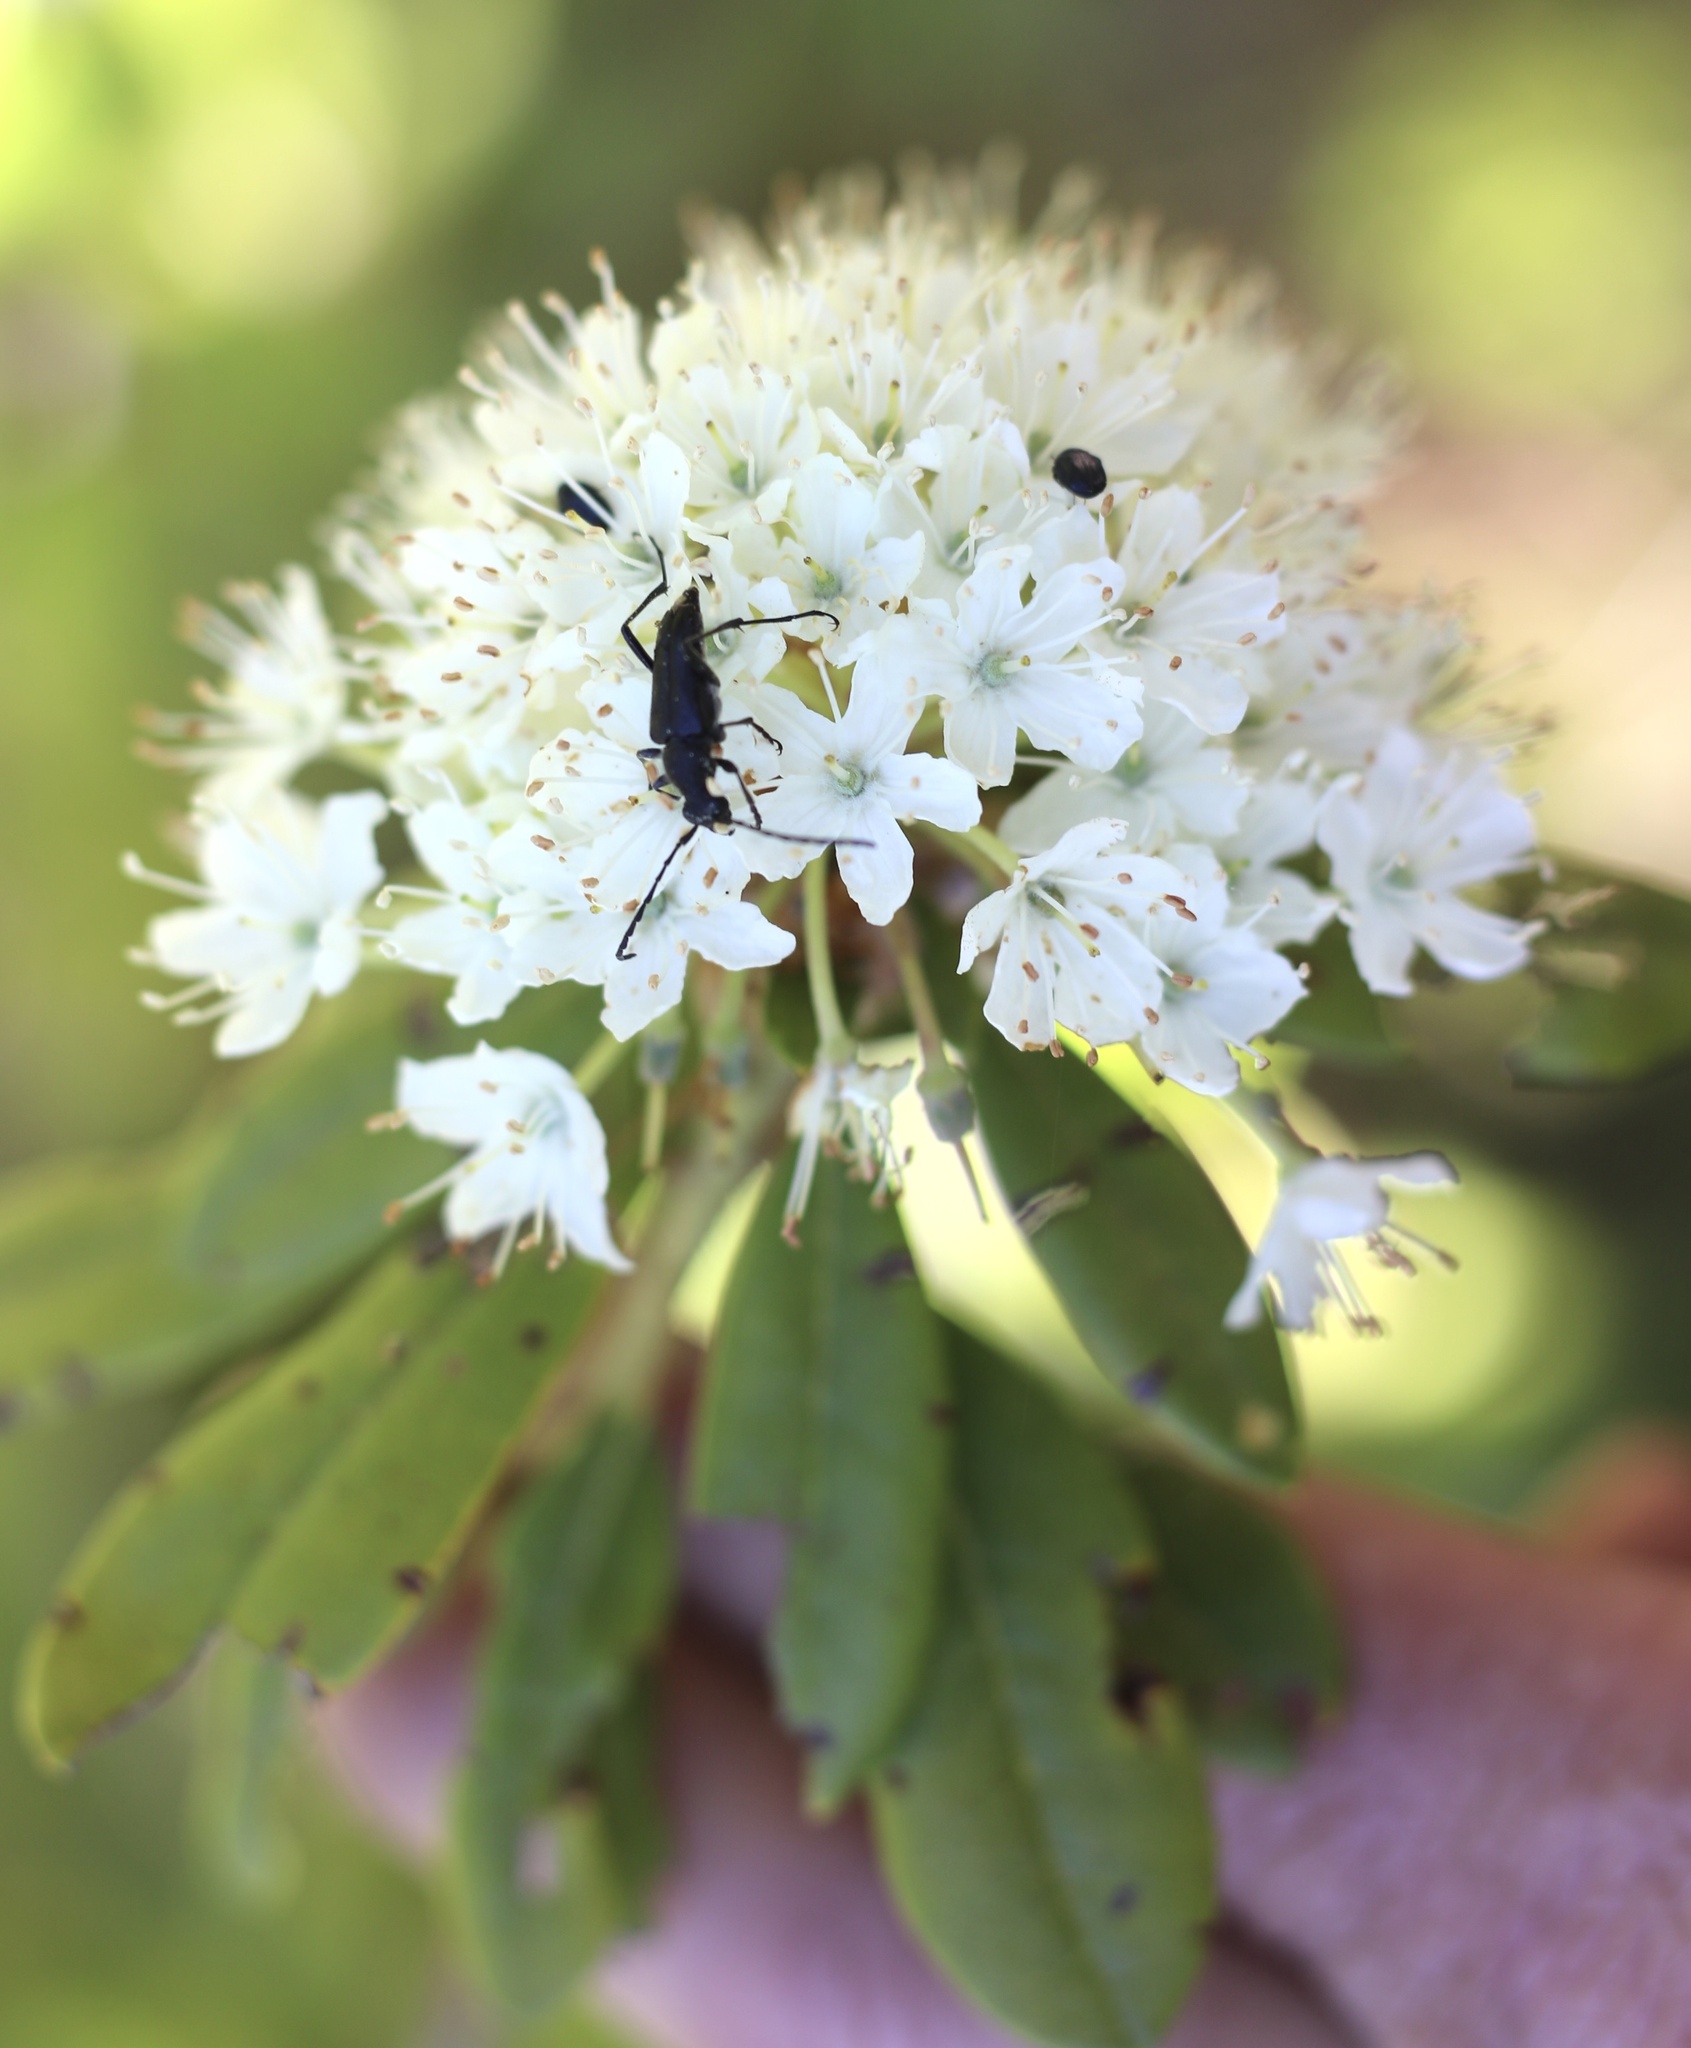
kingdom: Plantae
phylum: Tracheophyta
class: Magnoliopsida
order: Ericales
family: Ericaceae
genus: Rhododendron
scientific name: Rhododendron columbianum
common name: Western labrador tea
